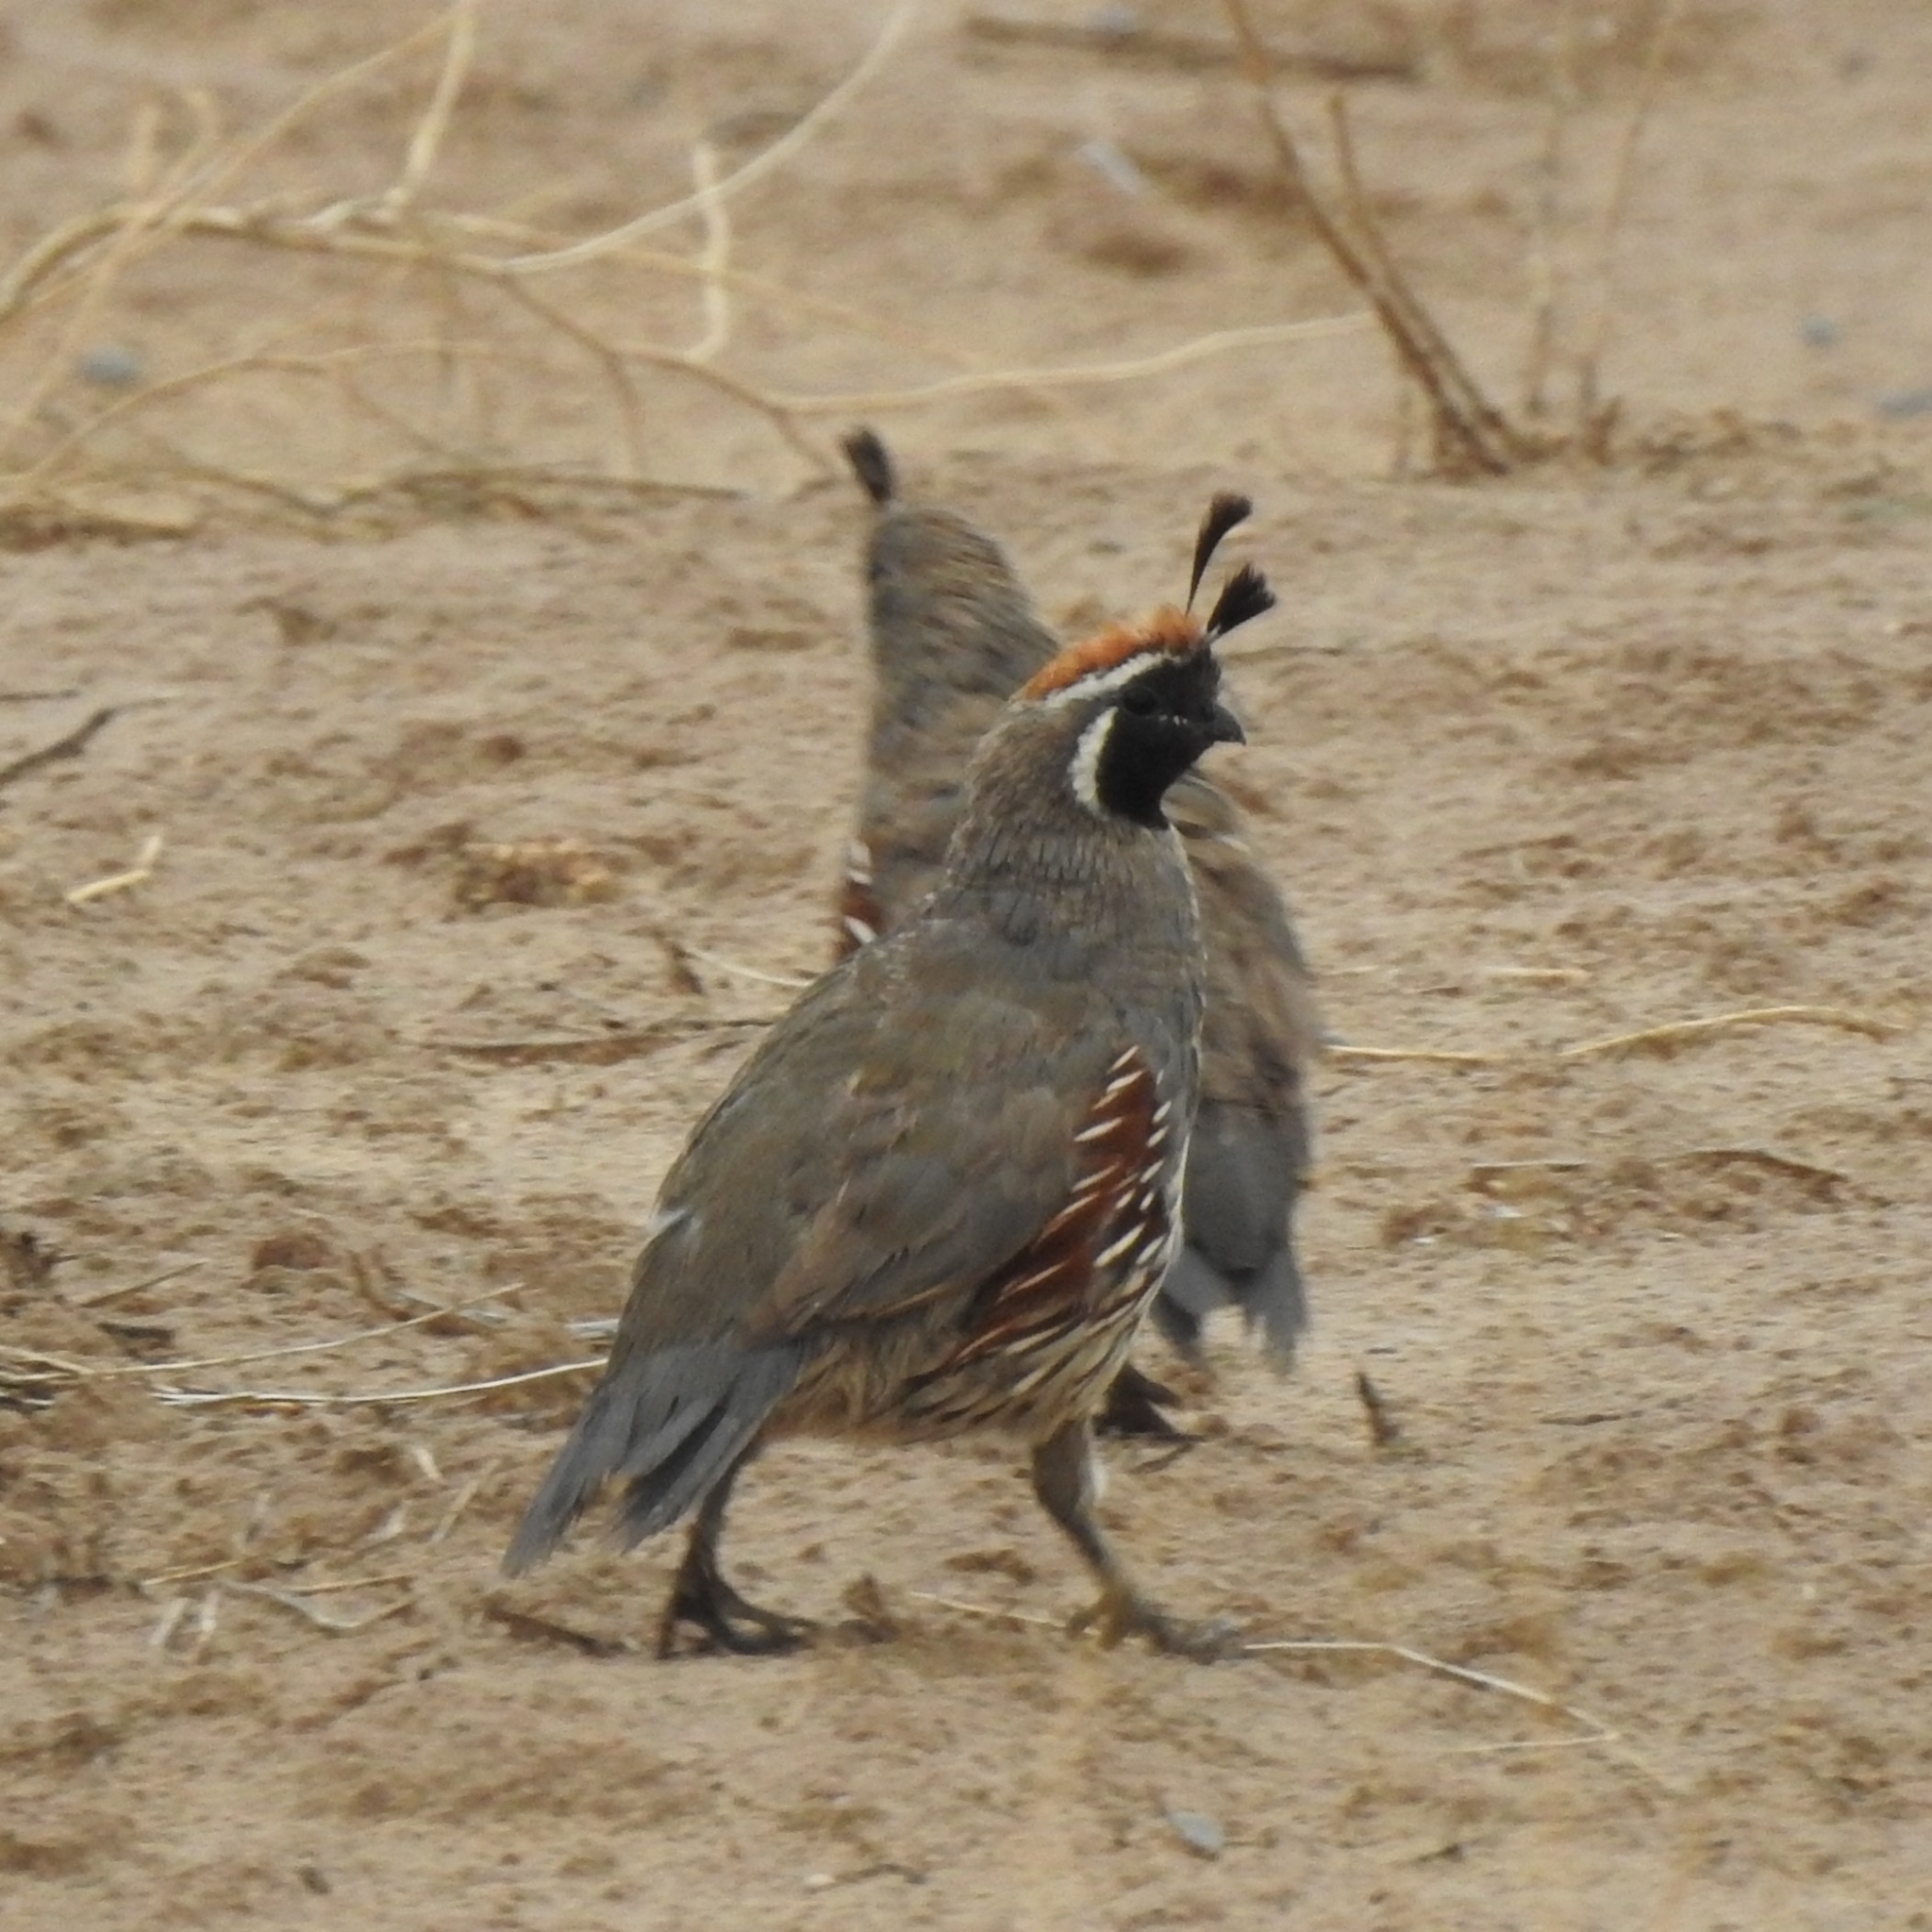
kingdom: Animalia
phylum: Chordata
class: Aves
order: Galliformes
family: Odontophoridae
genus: Callipepla
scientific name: Callipepla gambelii
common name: Gambel's quail
